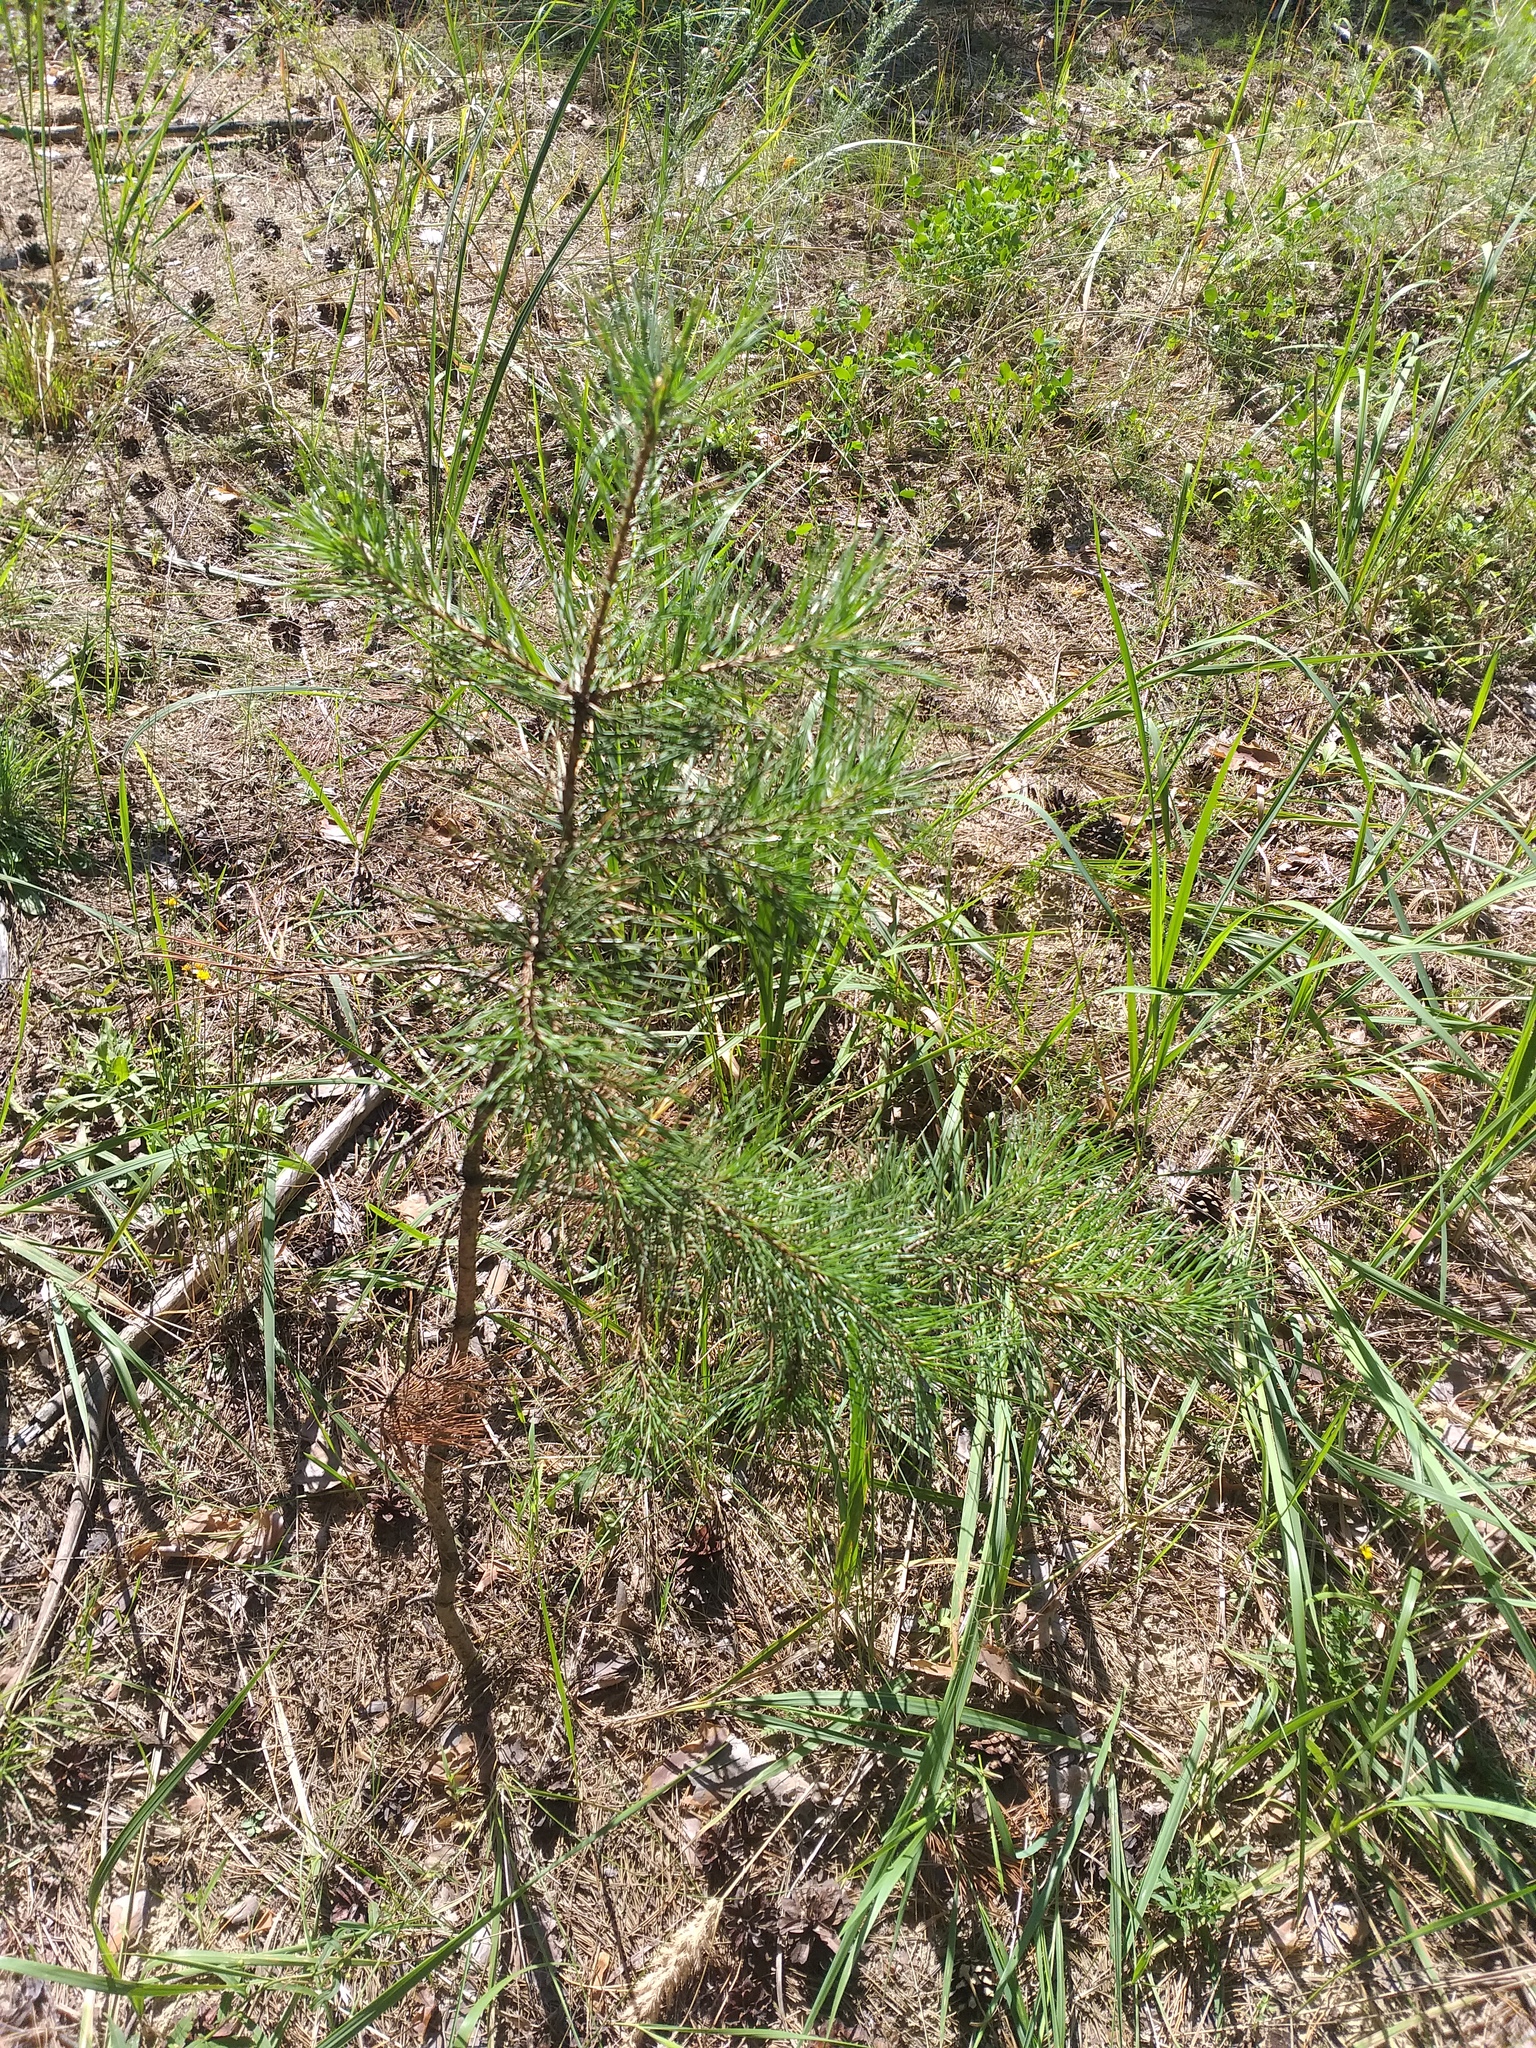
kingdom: Plantae
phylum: Tracheophyta
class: Pinopsida
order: Pinales
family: Pinaceae
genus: Pinus
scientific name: Pinus sylvestris
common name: Scots pine
